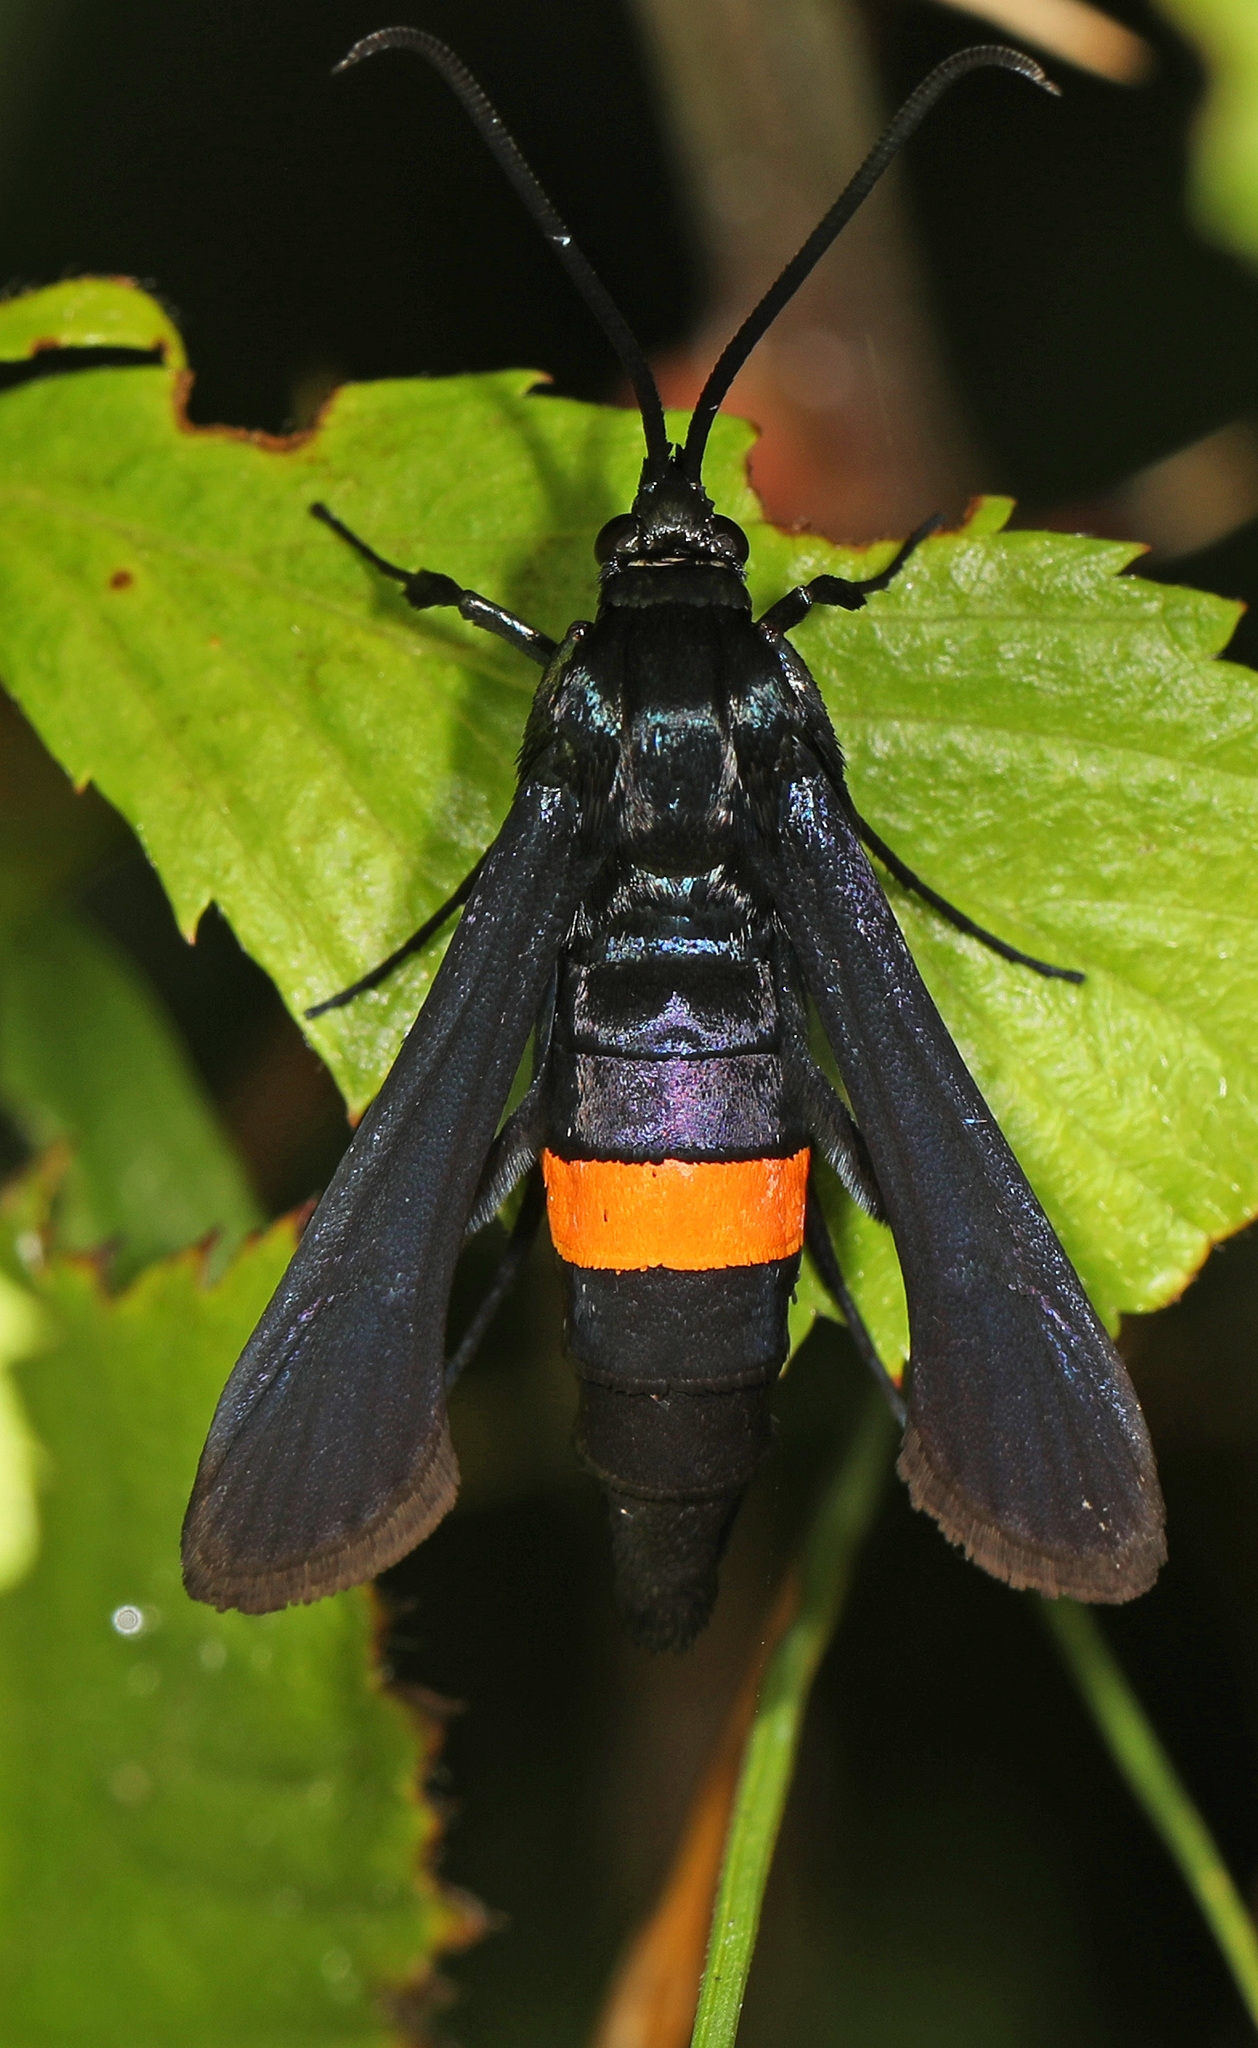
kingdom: Animalia
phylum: Arthropoda
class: Insecta
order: Lepidoptera
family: Sesiidae
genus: Synanthedon
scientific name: Synanthedon exitiosa
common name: Peachtree borer moth
